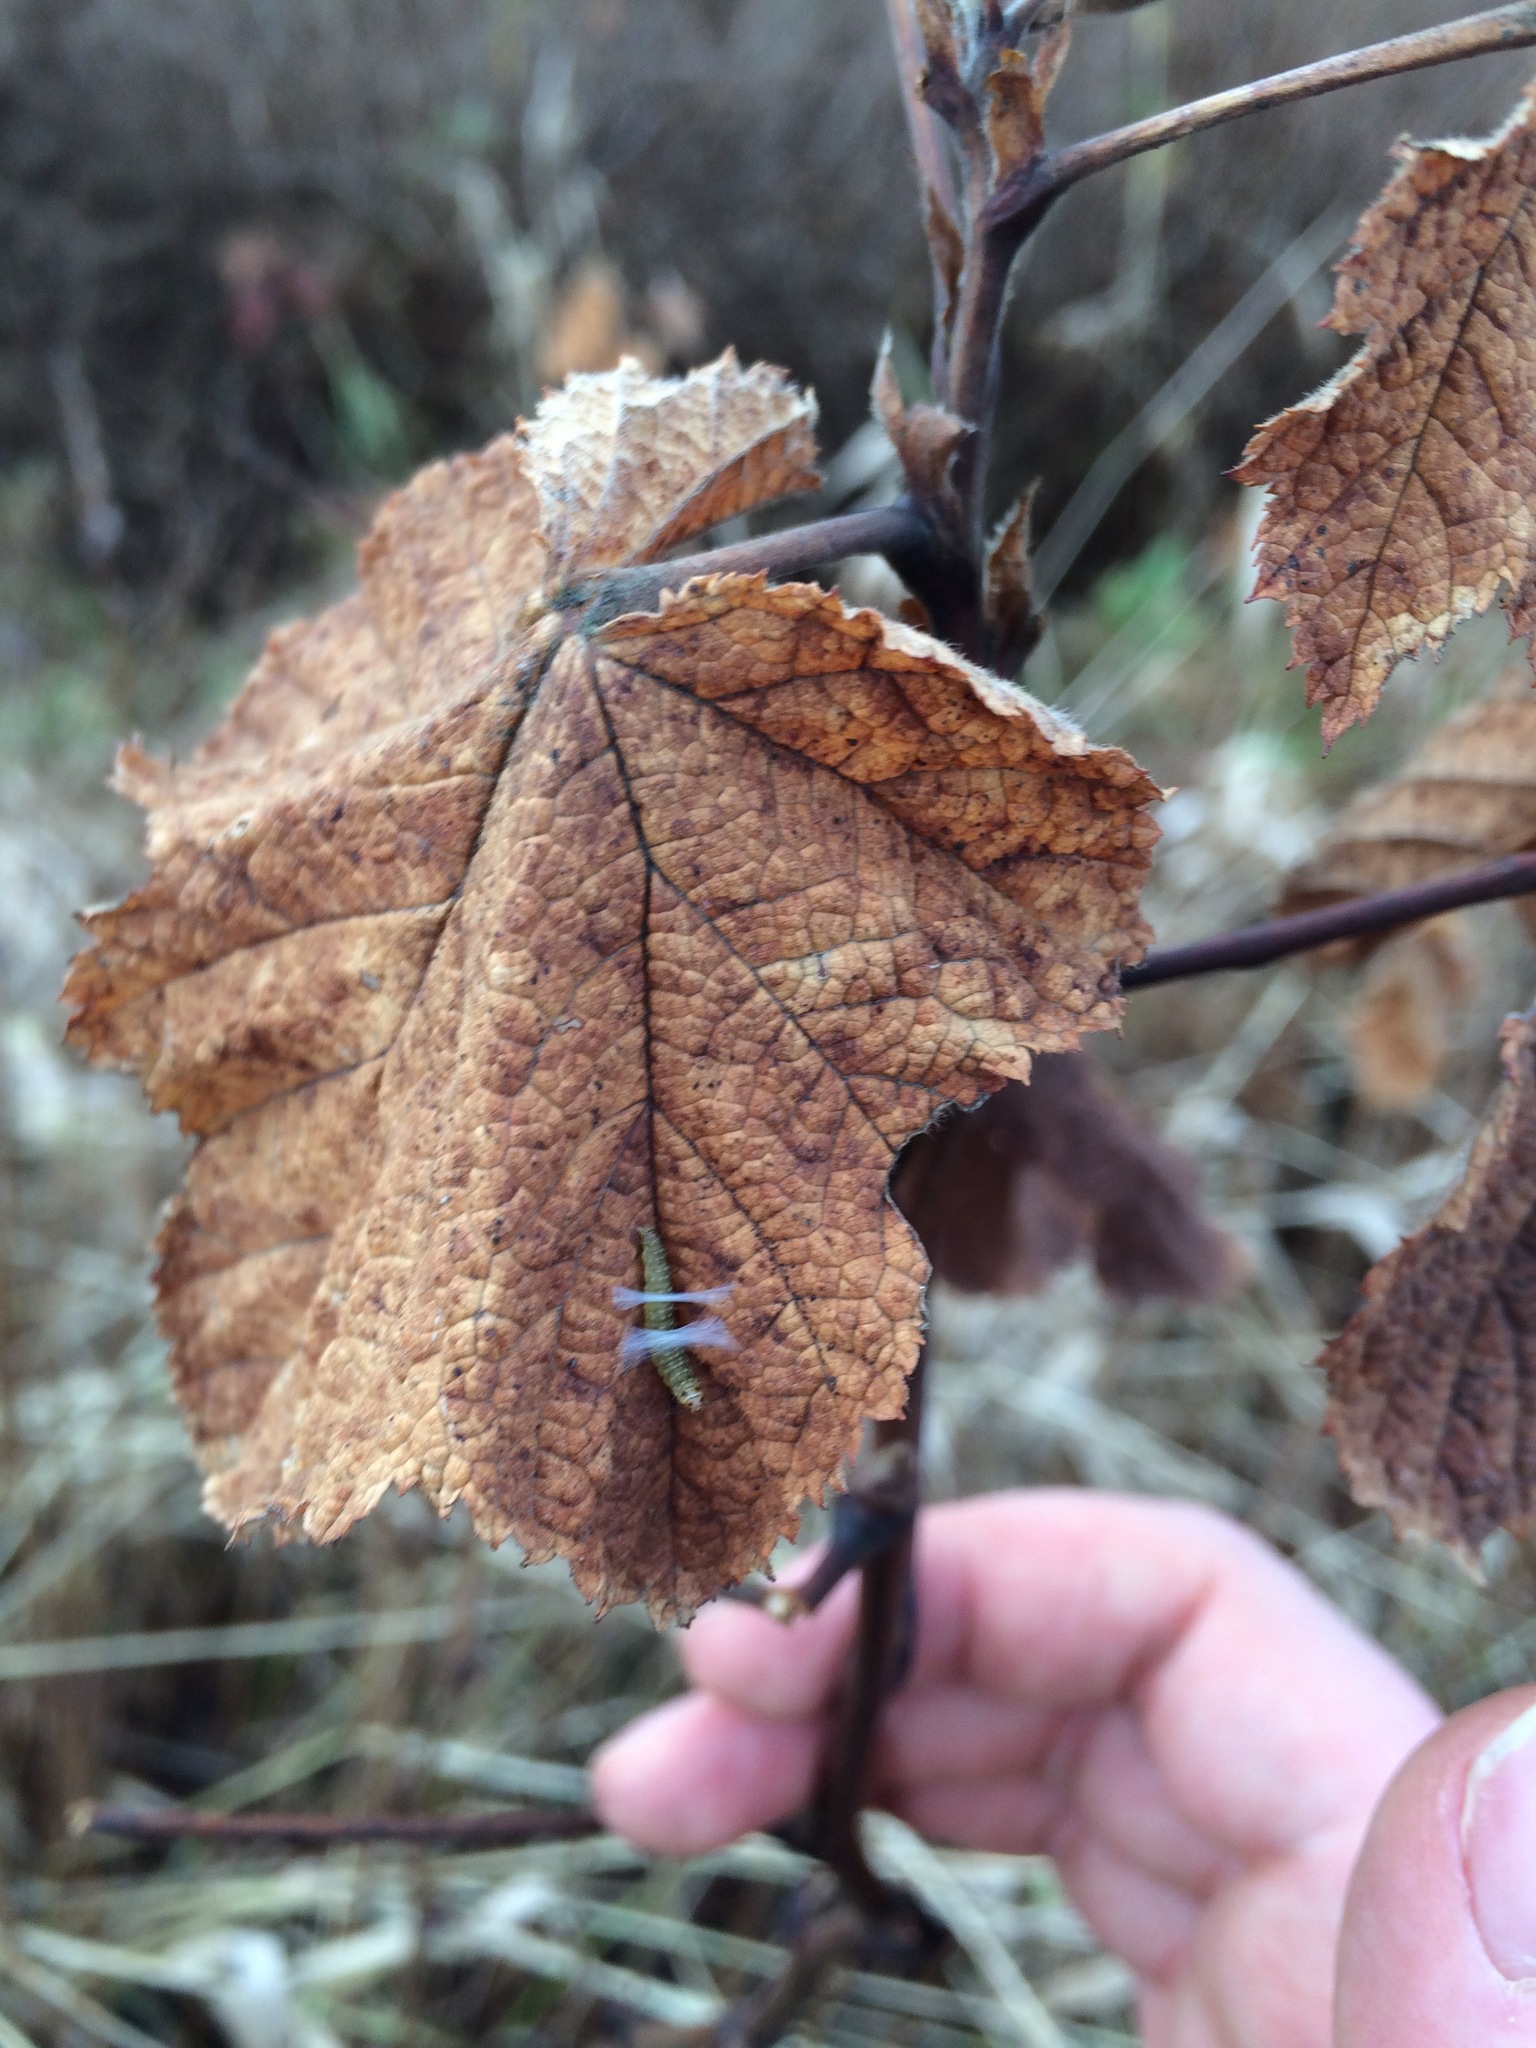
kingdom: Plantae
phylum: Tracheophyta
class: Magnoliopsida
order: Rosales
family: Rosaceae
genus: Rubus
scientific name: Rubus parviflorus
